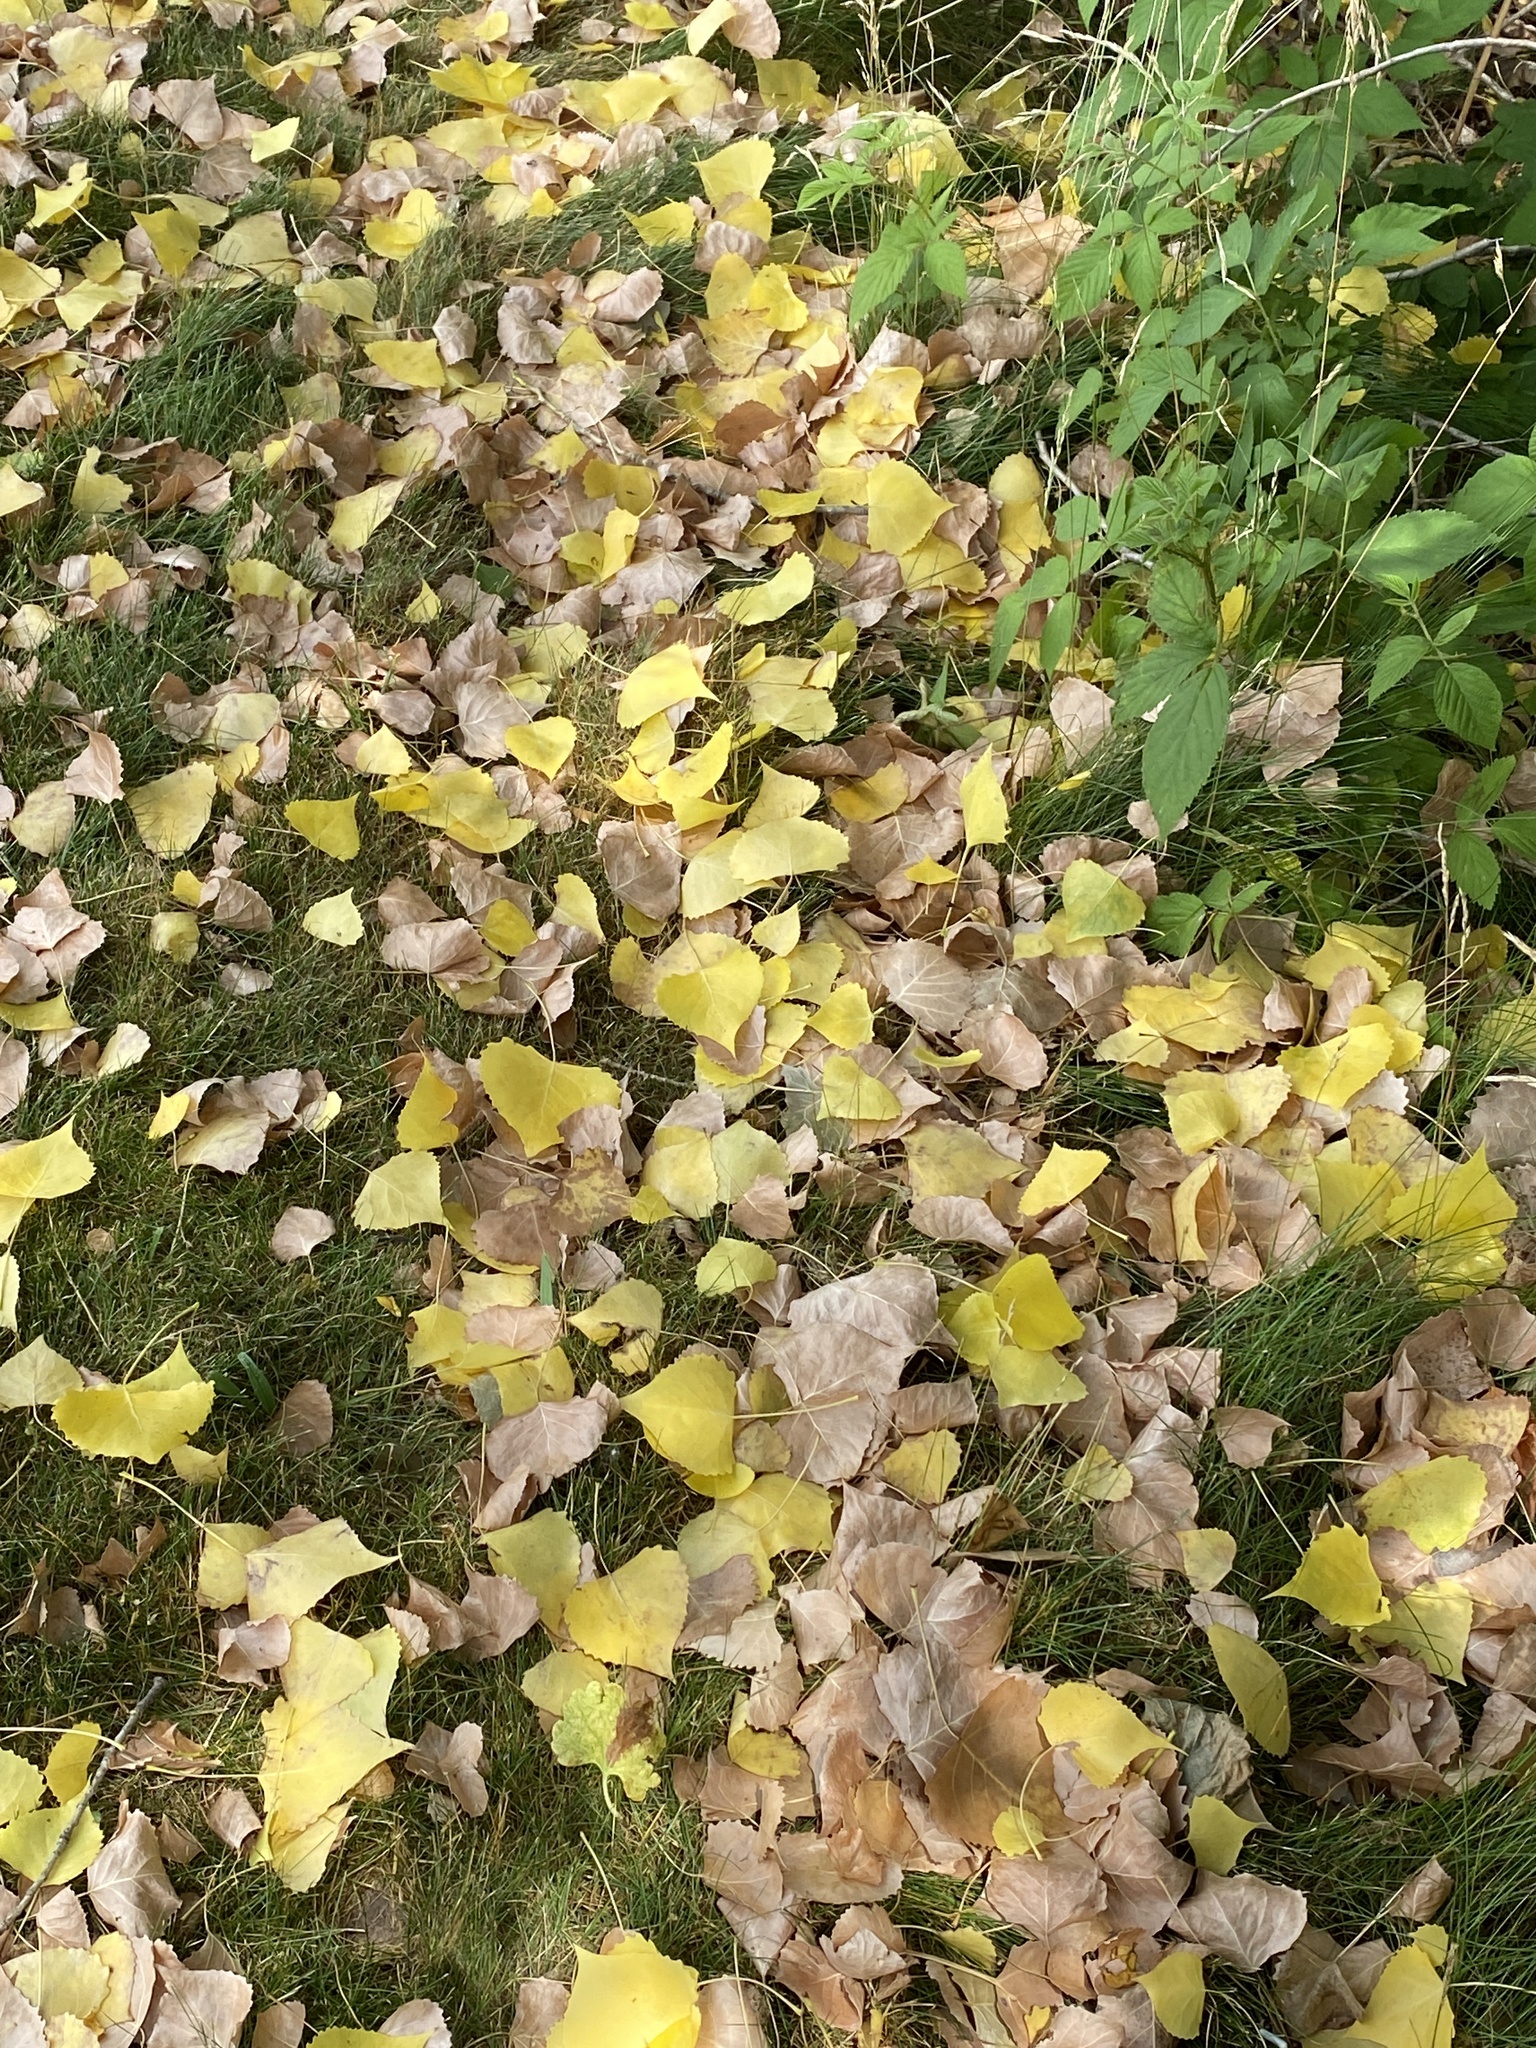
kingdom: Plantae
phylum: Tracheophyta
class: Magnoliopsida
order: Malpighiales
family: Salicaceae
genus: Populus
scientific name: Populus deltoides
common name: Eastern cottonwood
